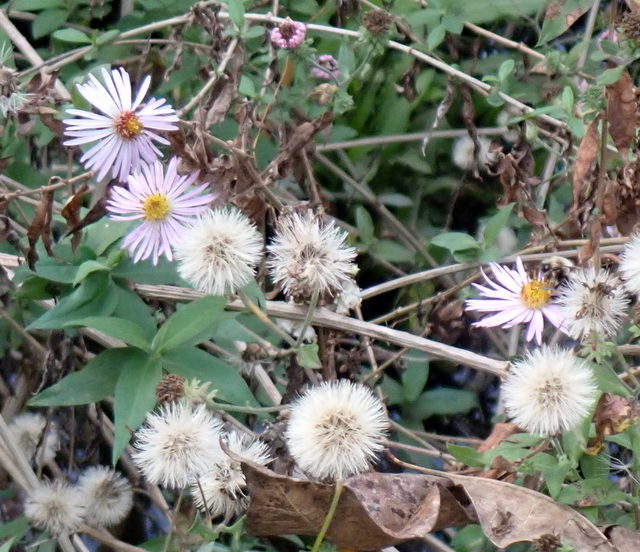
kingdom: Plantae
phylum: Tracheophyta
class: Magnoliopsida
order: Asterales
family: Asteraceae
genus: Ampelaster
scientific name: Ampelaster carolinianus
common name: Climbing aster
